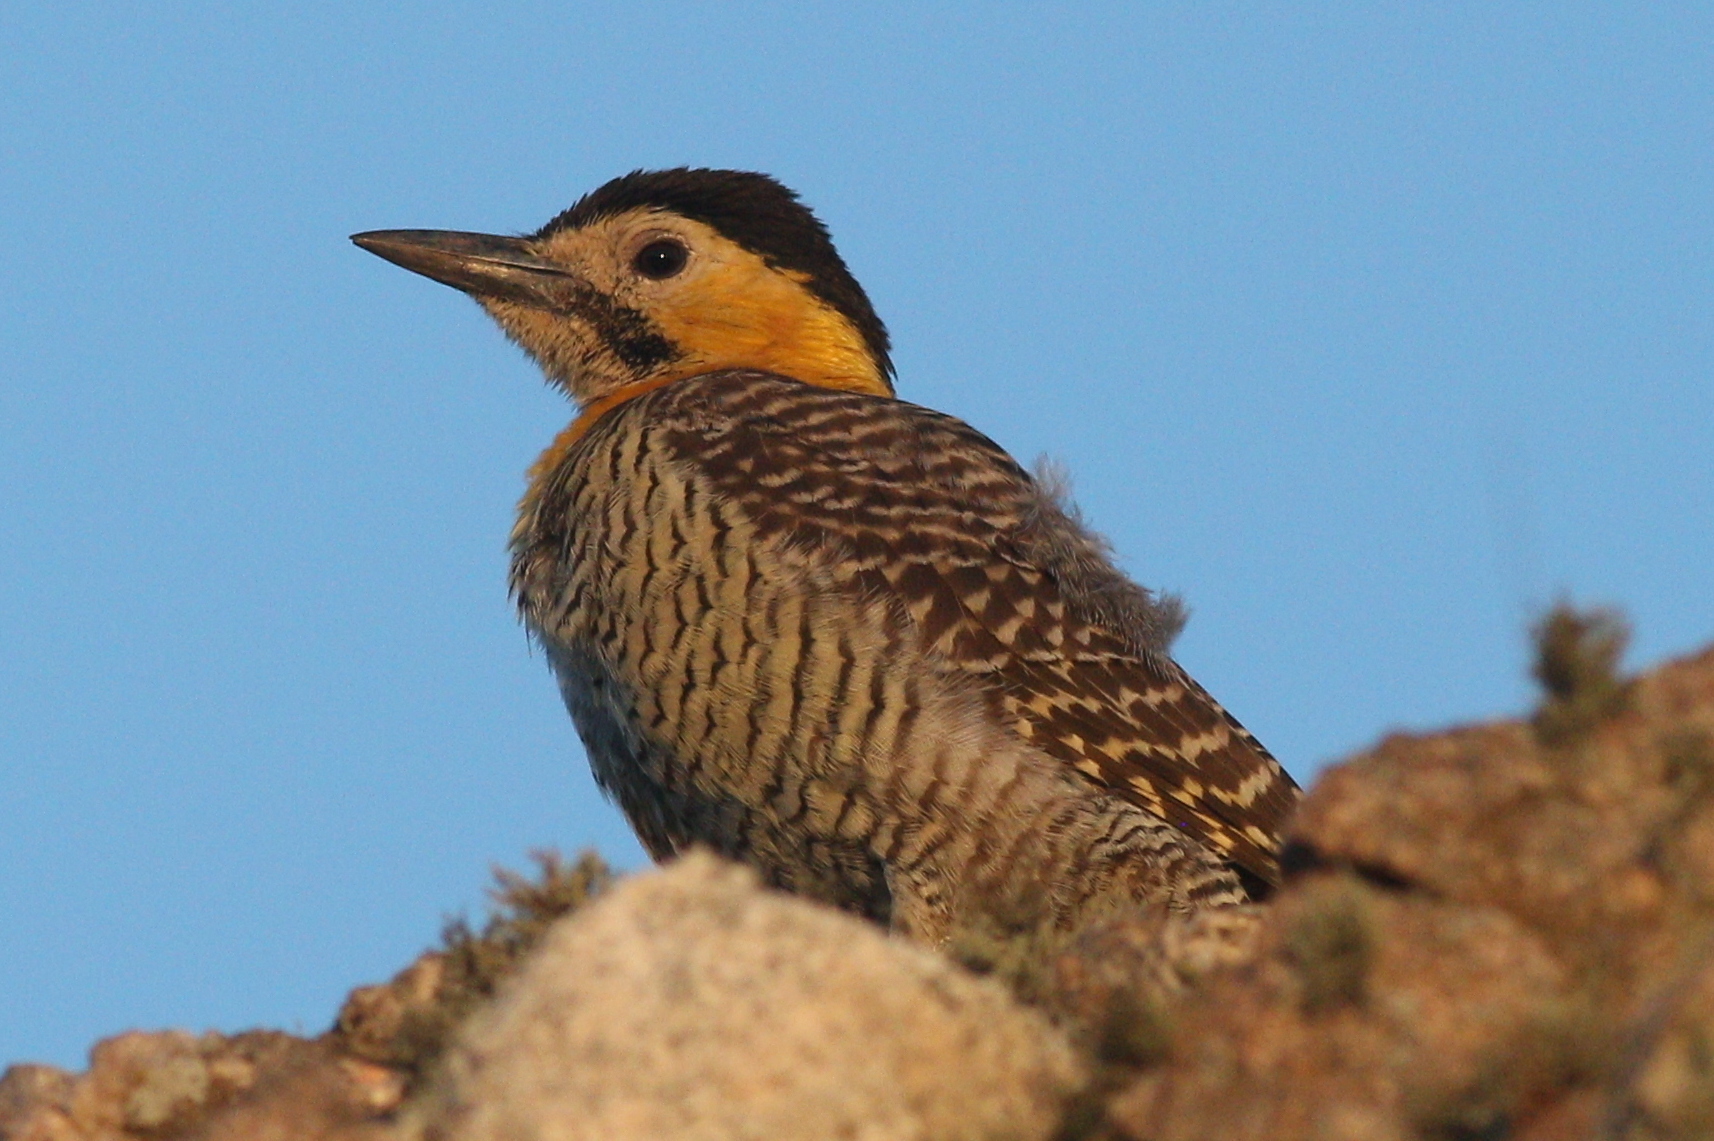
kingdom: Animalia
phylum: Chordata
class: Aves
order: Piciformes
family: Picidae
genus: Colaptes
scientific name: Colaptes campestris
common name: Campo flicker
